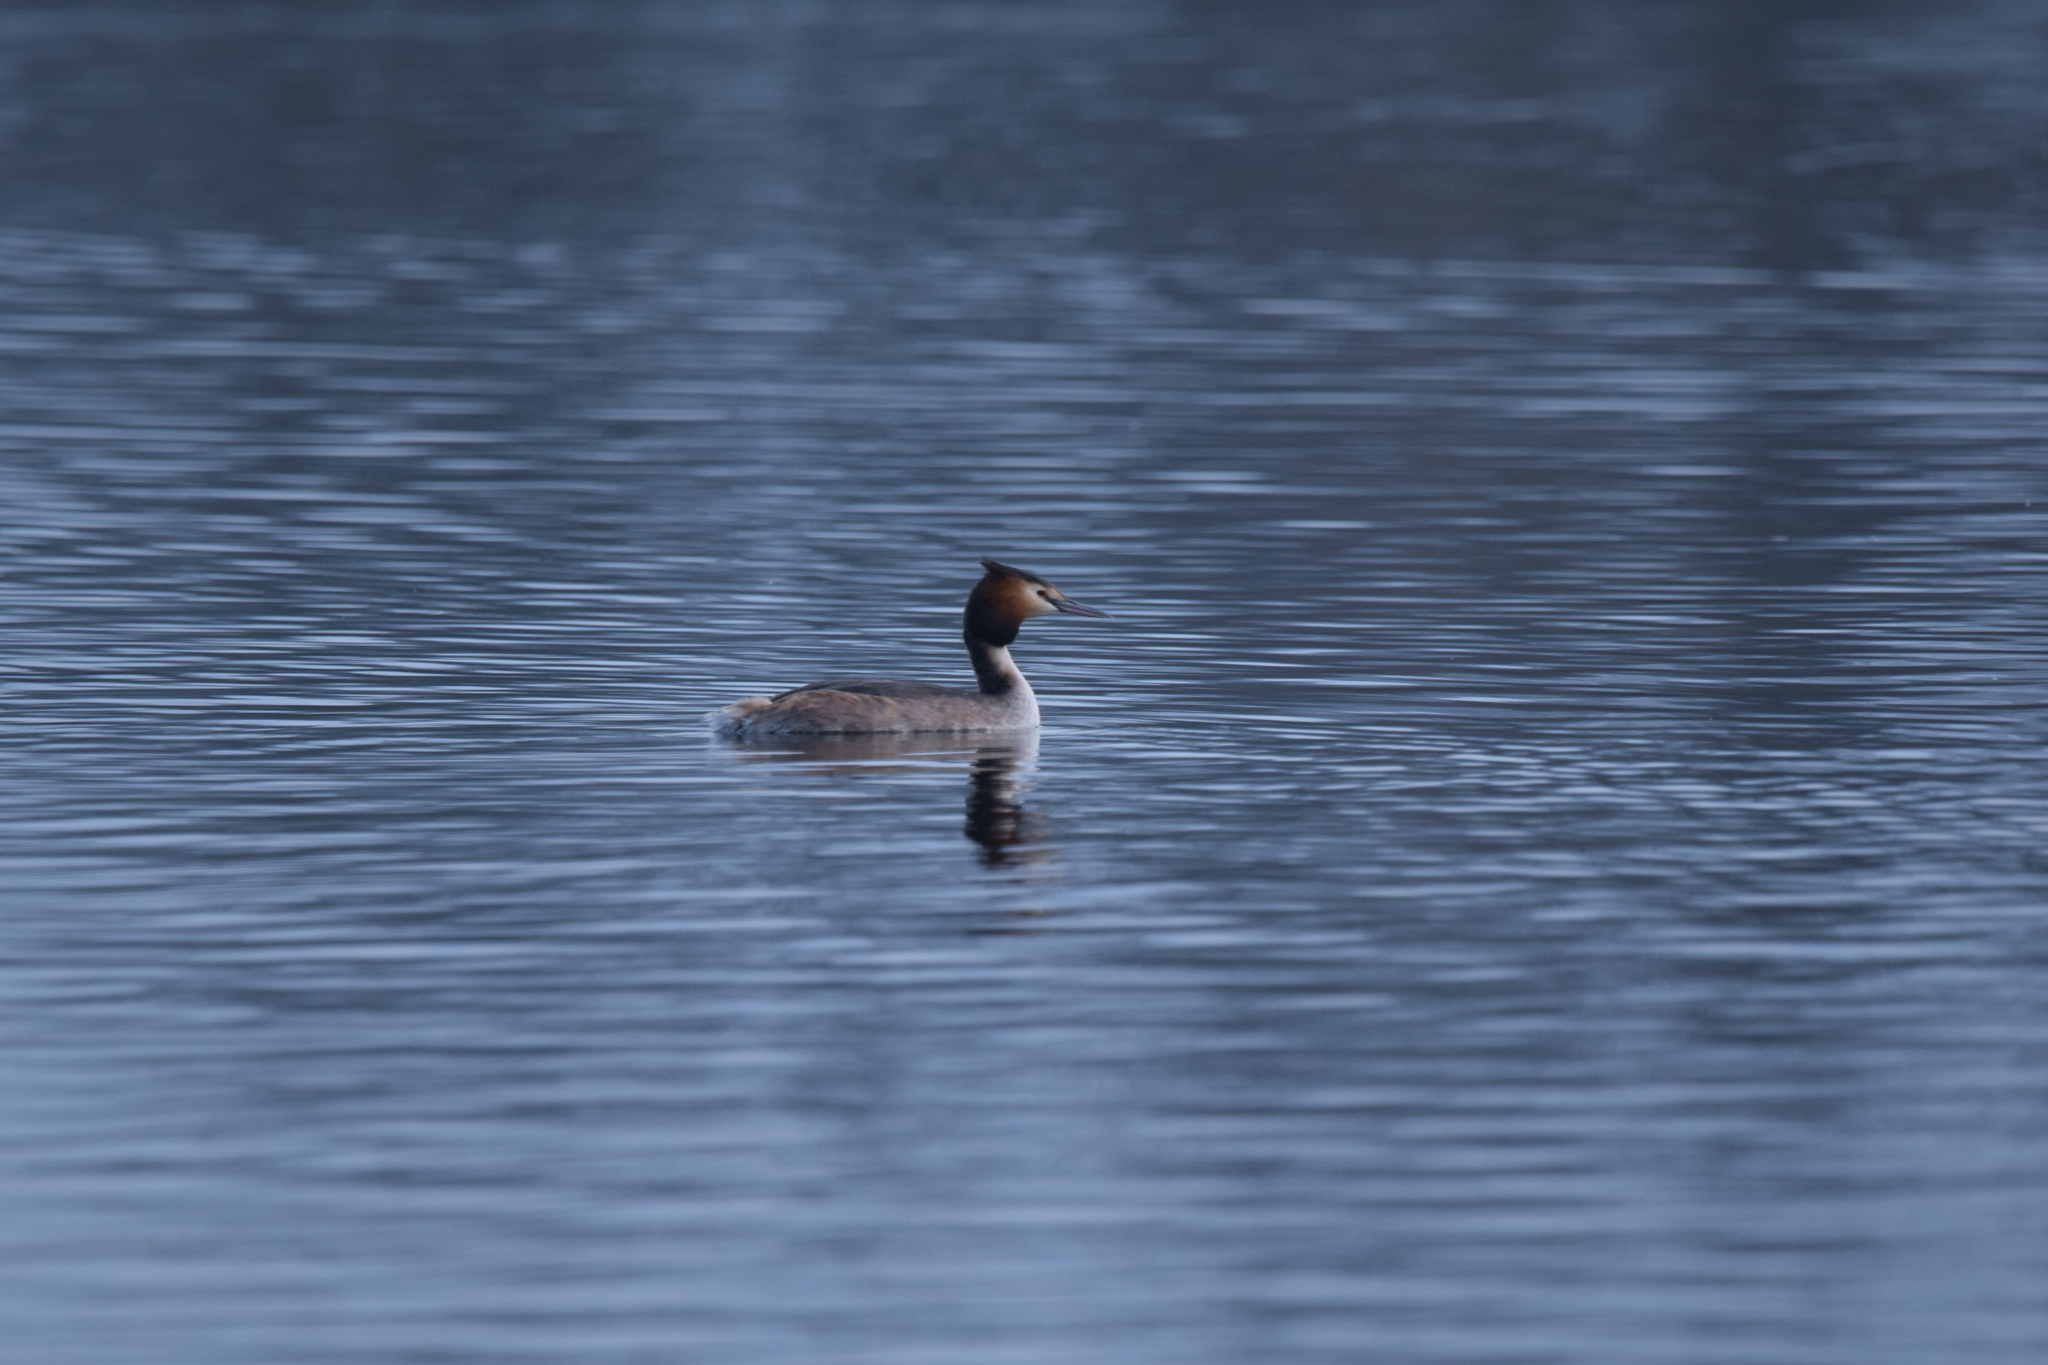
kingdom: Animalia
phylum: Chordata
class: Aves
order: Podicipediformes
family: Podicipedidae
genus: Podiceps
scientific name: Podiceps cristatus
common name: Great crested grebe
